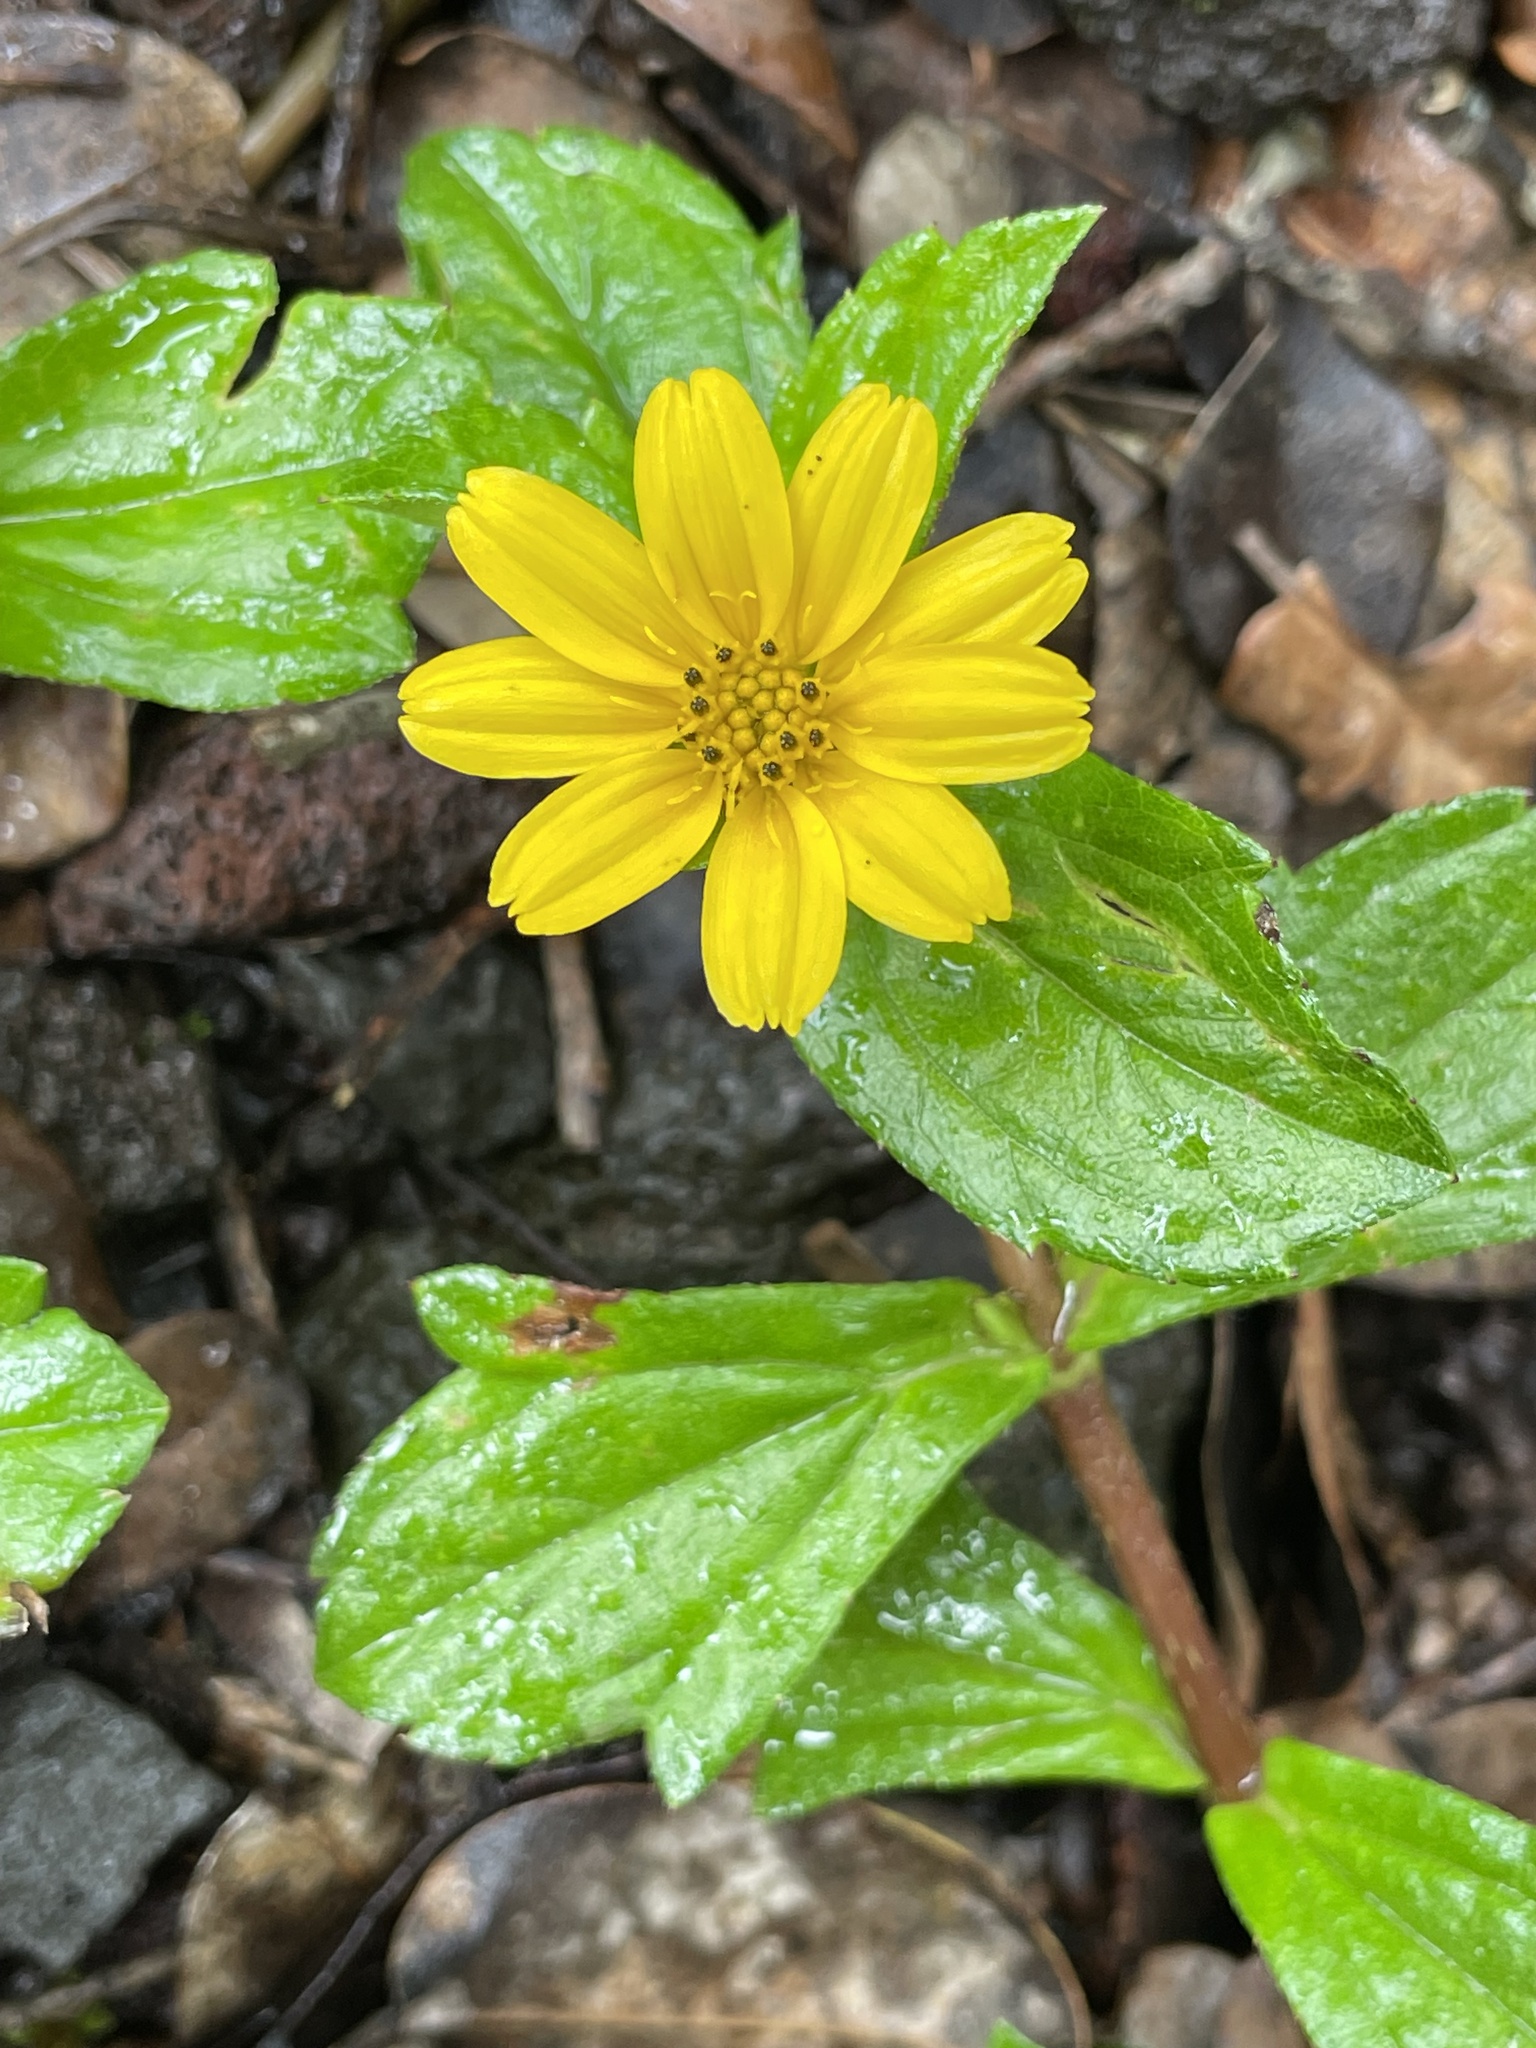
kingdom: Plantae
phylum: Tracheophyta
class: Magnoliopsida
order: Asterales
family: Asteraceae
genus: Sphagneticola
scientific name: Sphagneticola trilobata
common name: Bay biscayne creeping-oxeye
